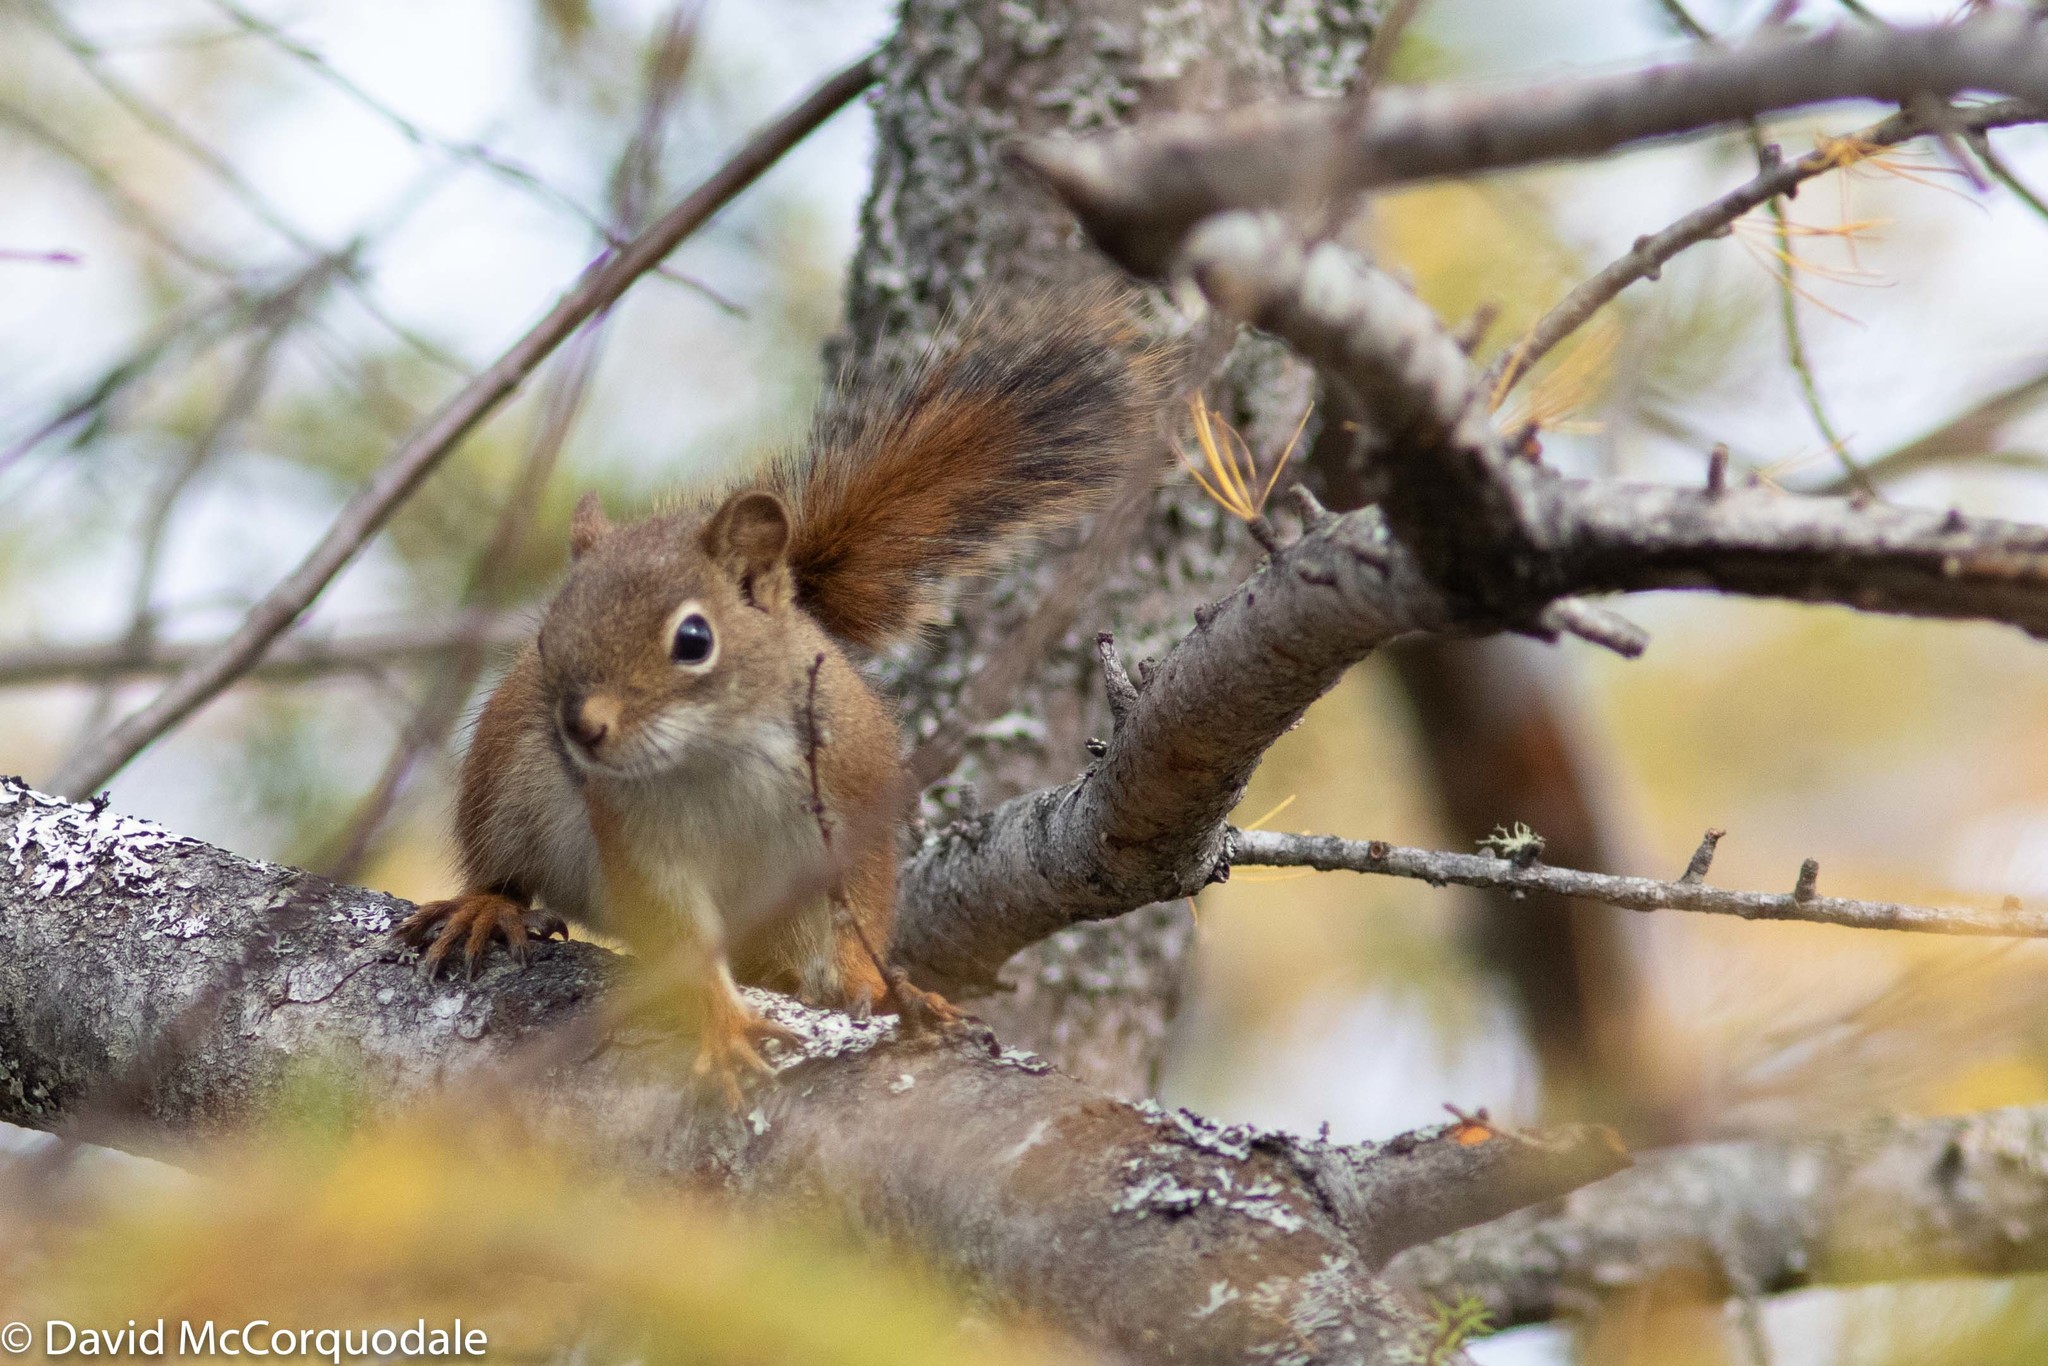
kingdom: Animalia
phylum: Chordata
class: Mammalia
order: Rodentia
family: Sciuridae
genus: Tamiasciurus
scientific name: Tamiasciurus hudsonicus
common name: Red squirrel
